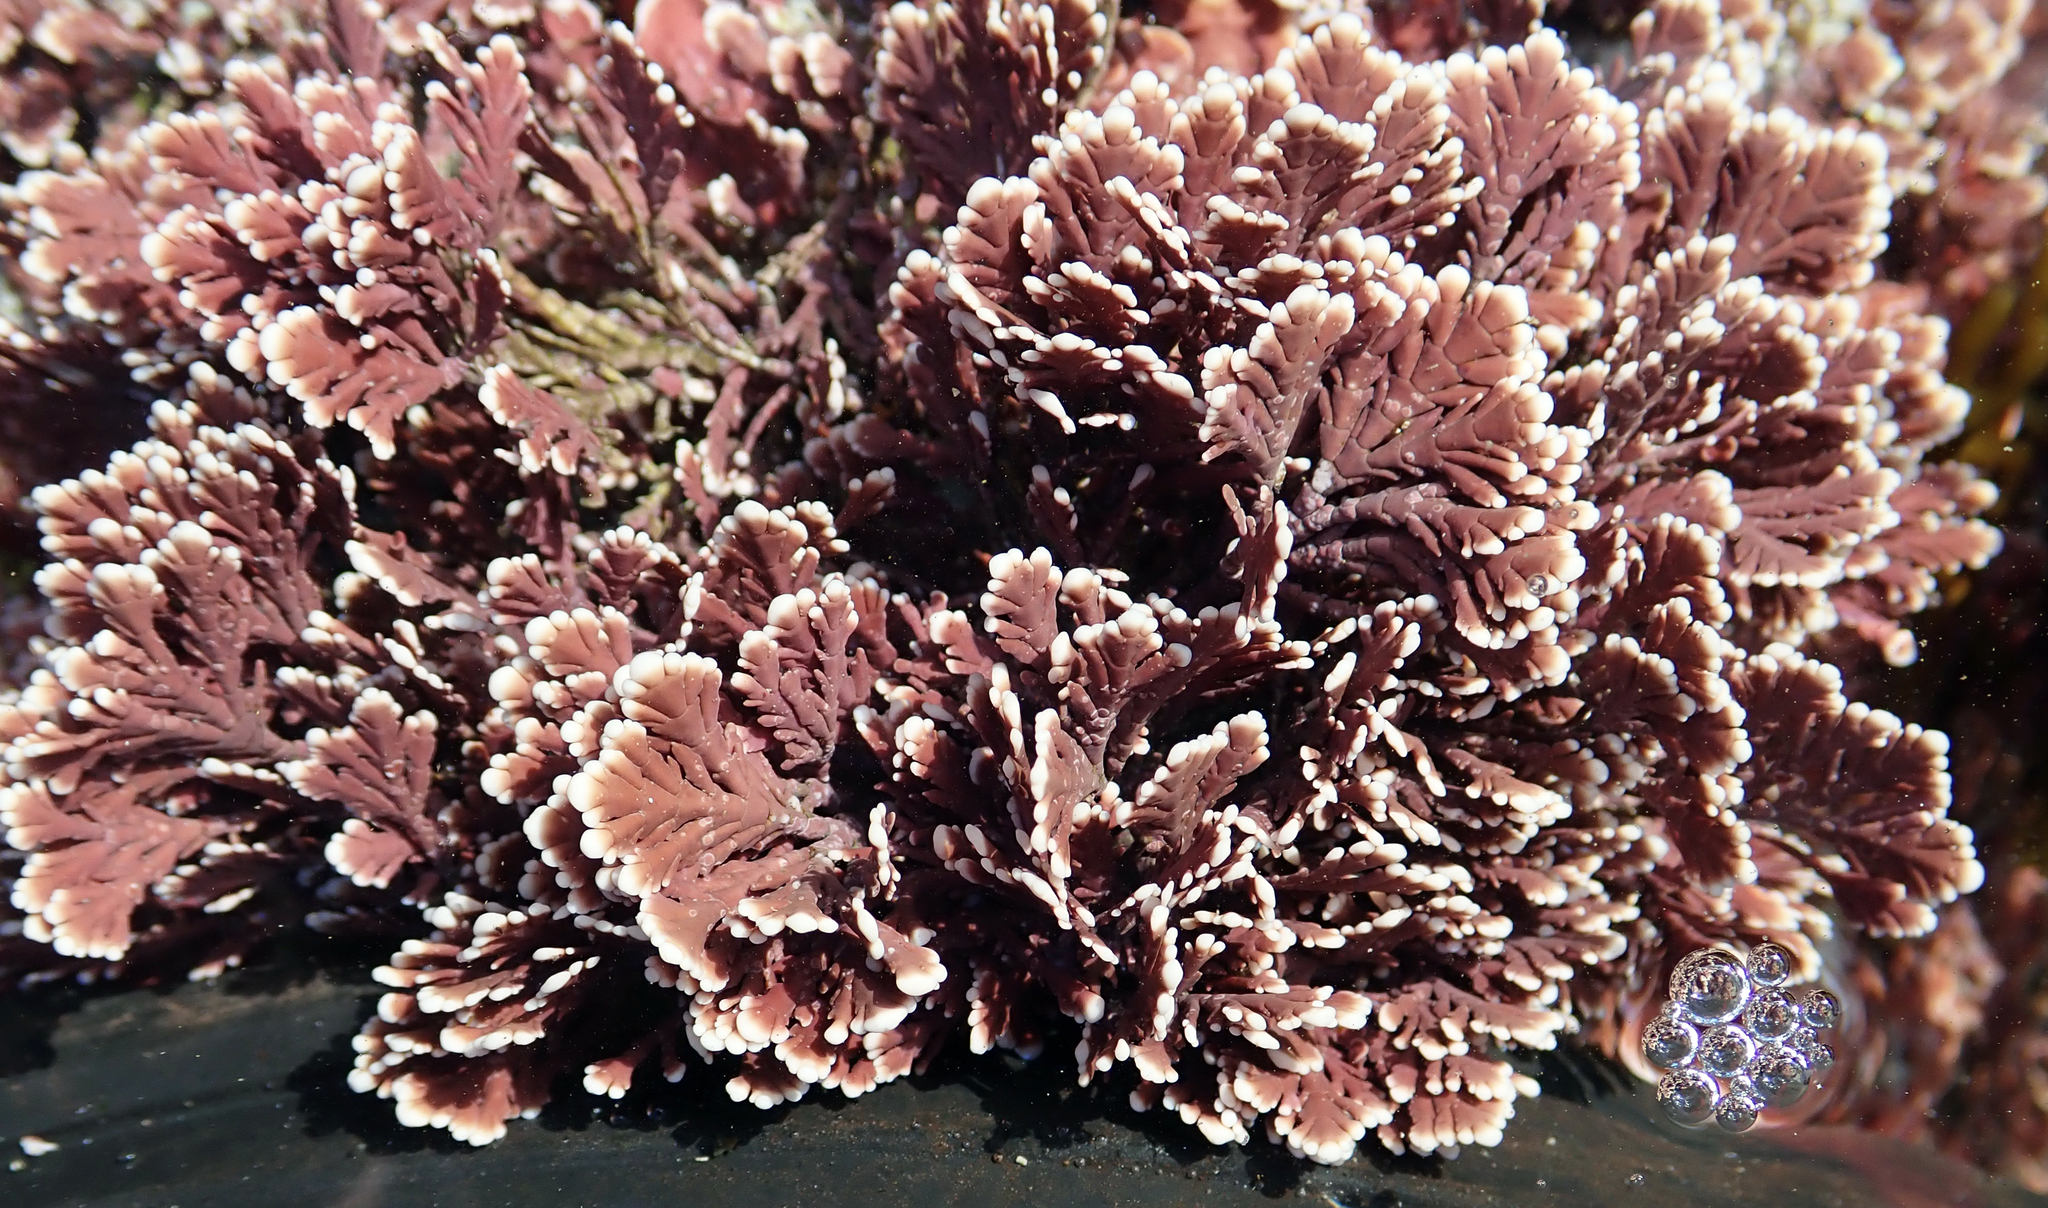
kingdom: Plantae
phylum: Rhodophyta
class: Florideophyceae
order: Corallinales
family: Corallinaceae
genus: Arthrocardia
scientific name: Arthrocardia corymbosa
